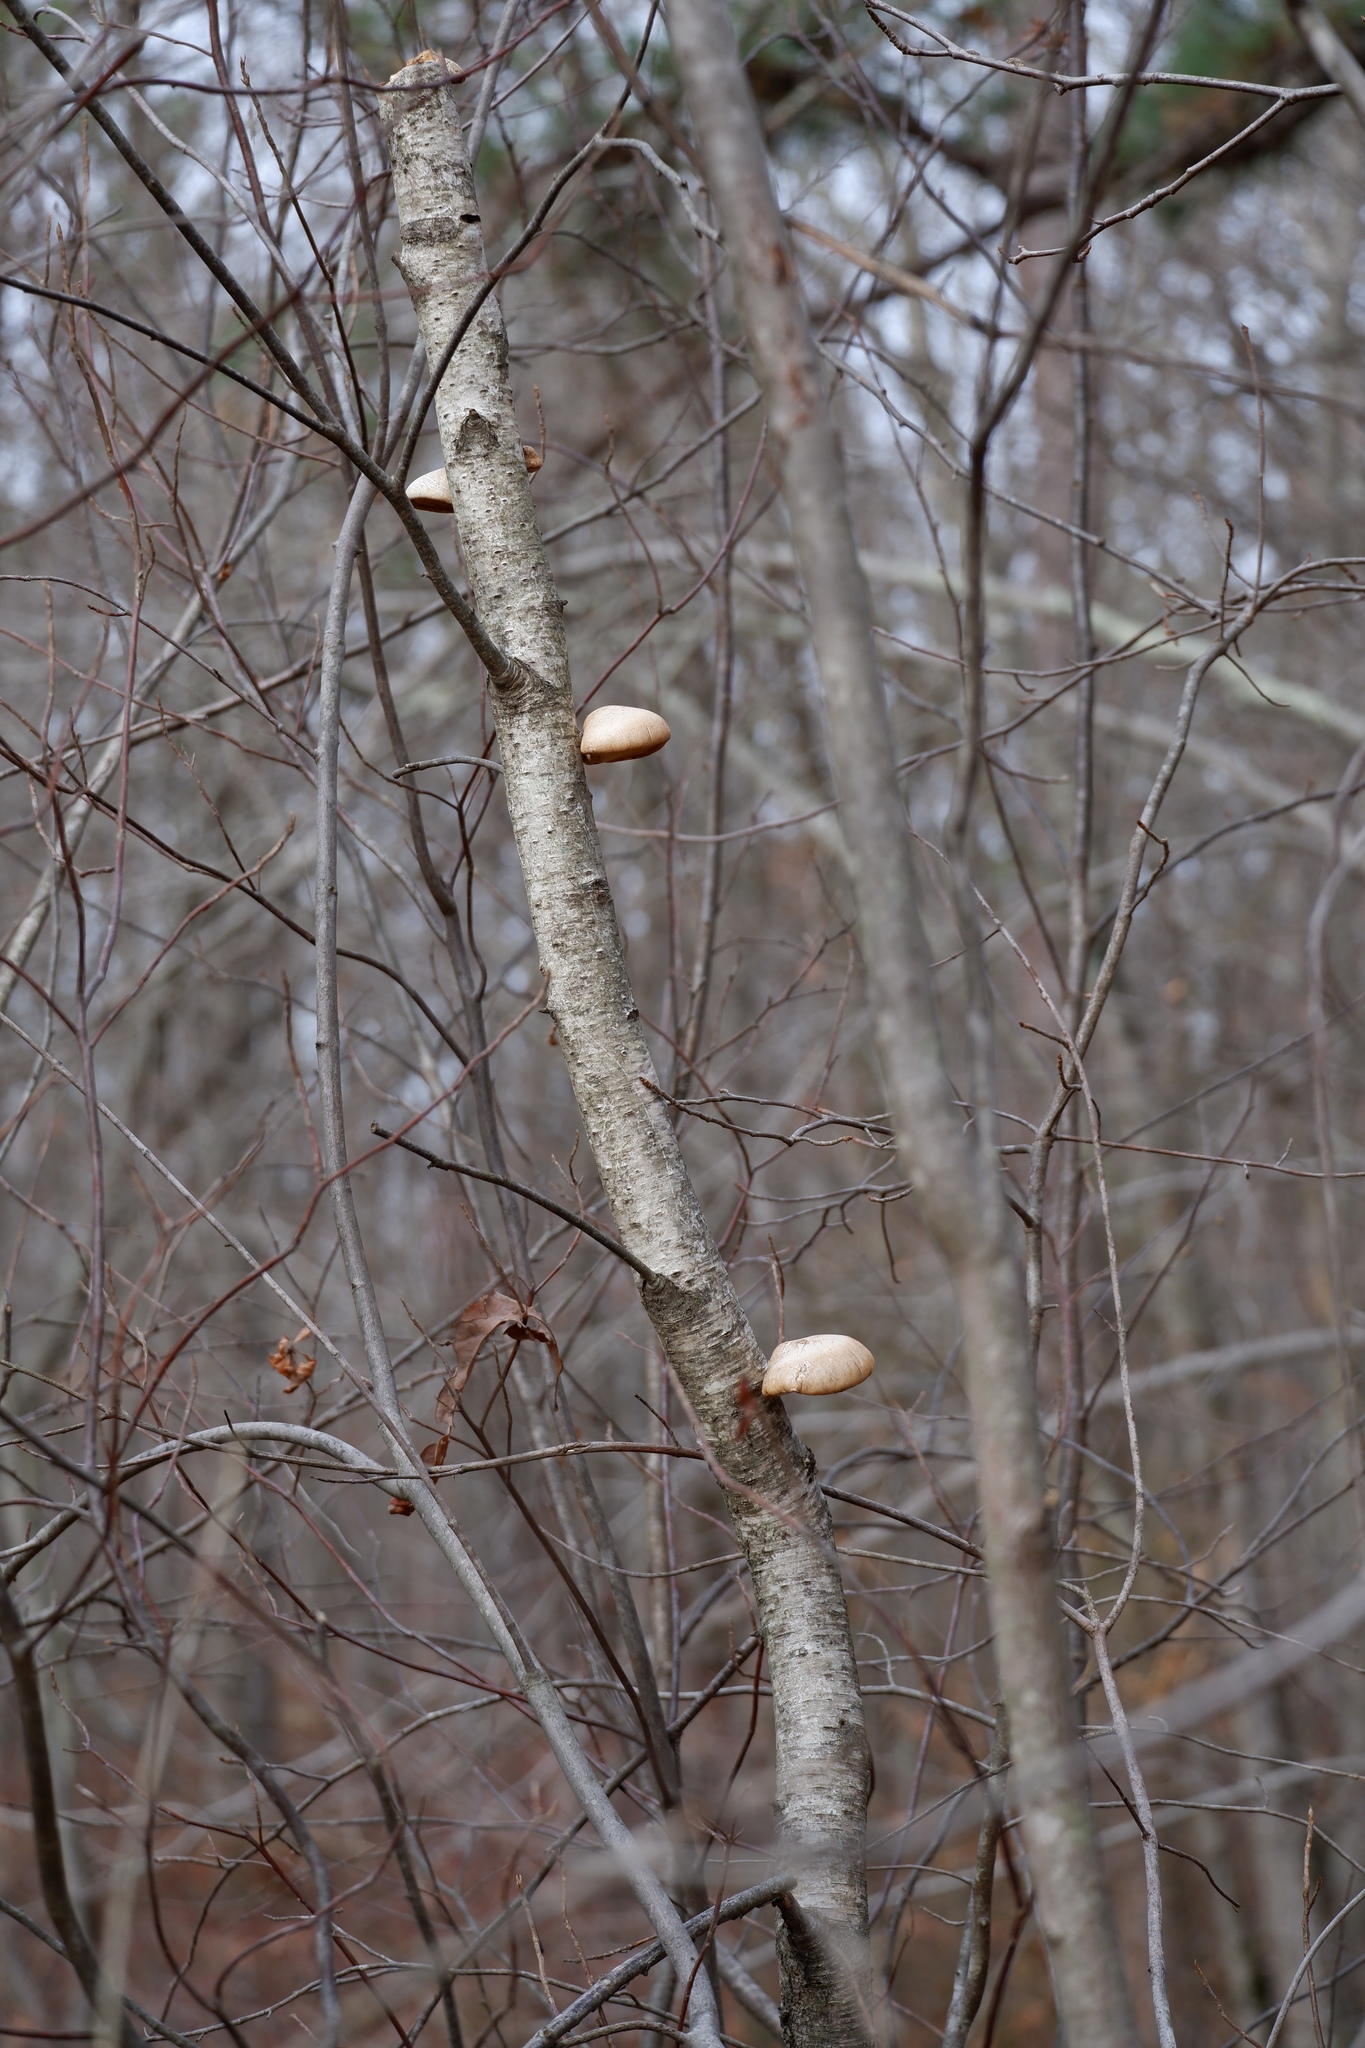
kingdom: Fungi
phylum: Basidiomycota
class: Agaricomycetes
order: Polyporales
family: Fomitopsidaceae
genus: Fomitopsis
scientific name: Fomitopsis betulina
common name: Birch polypore
